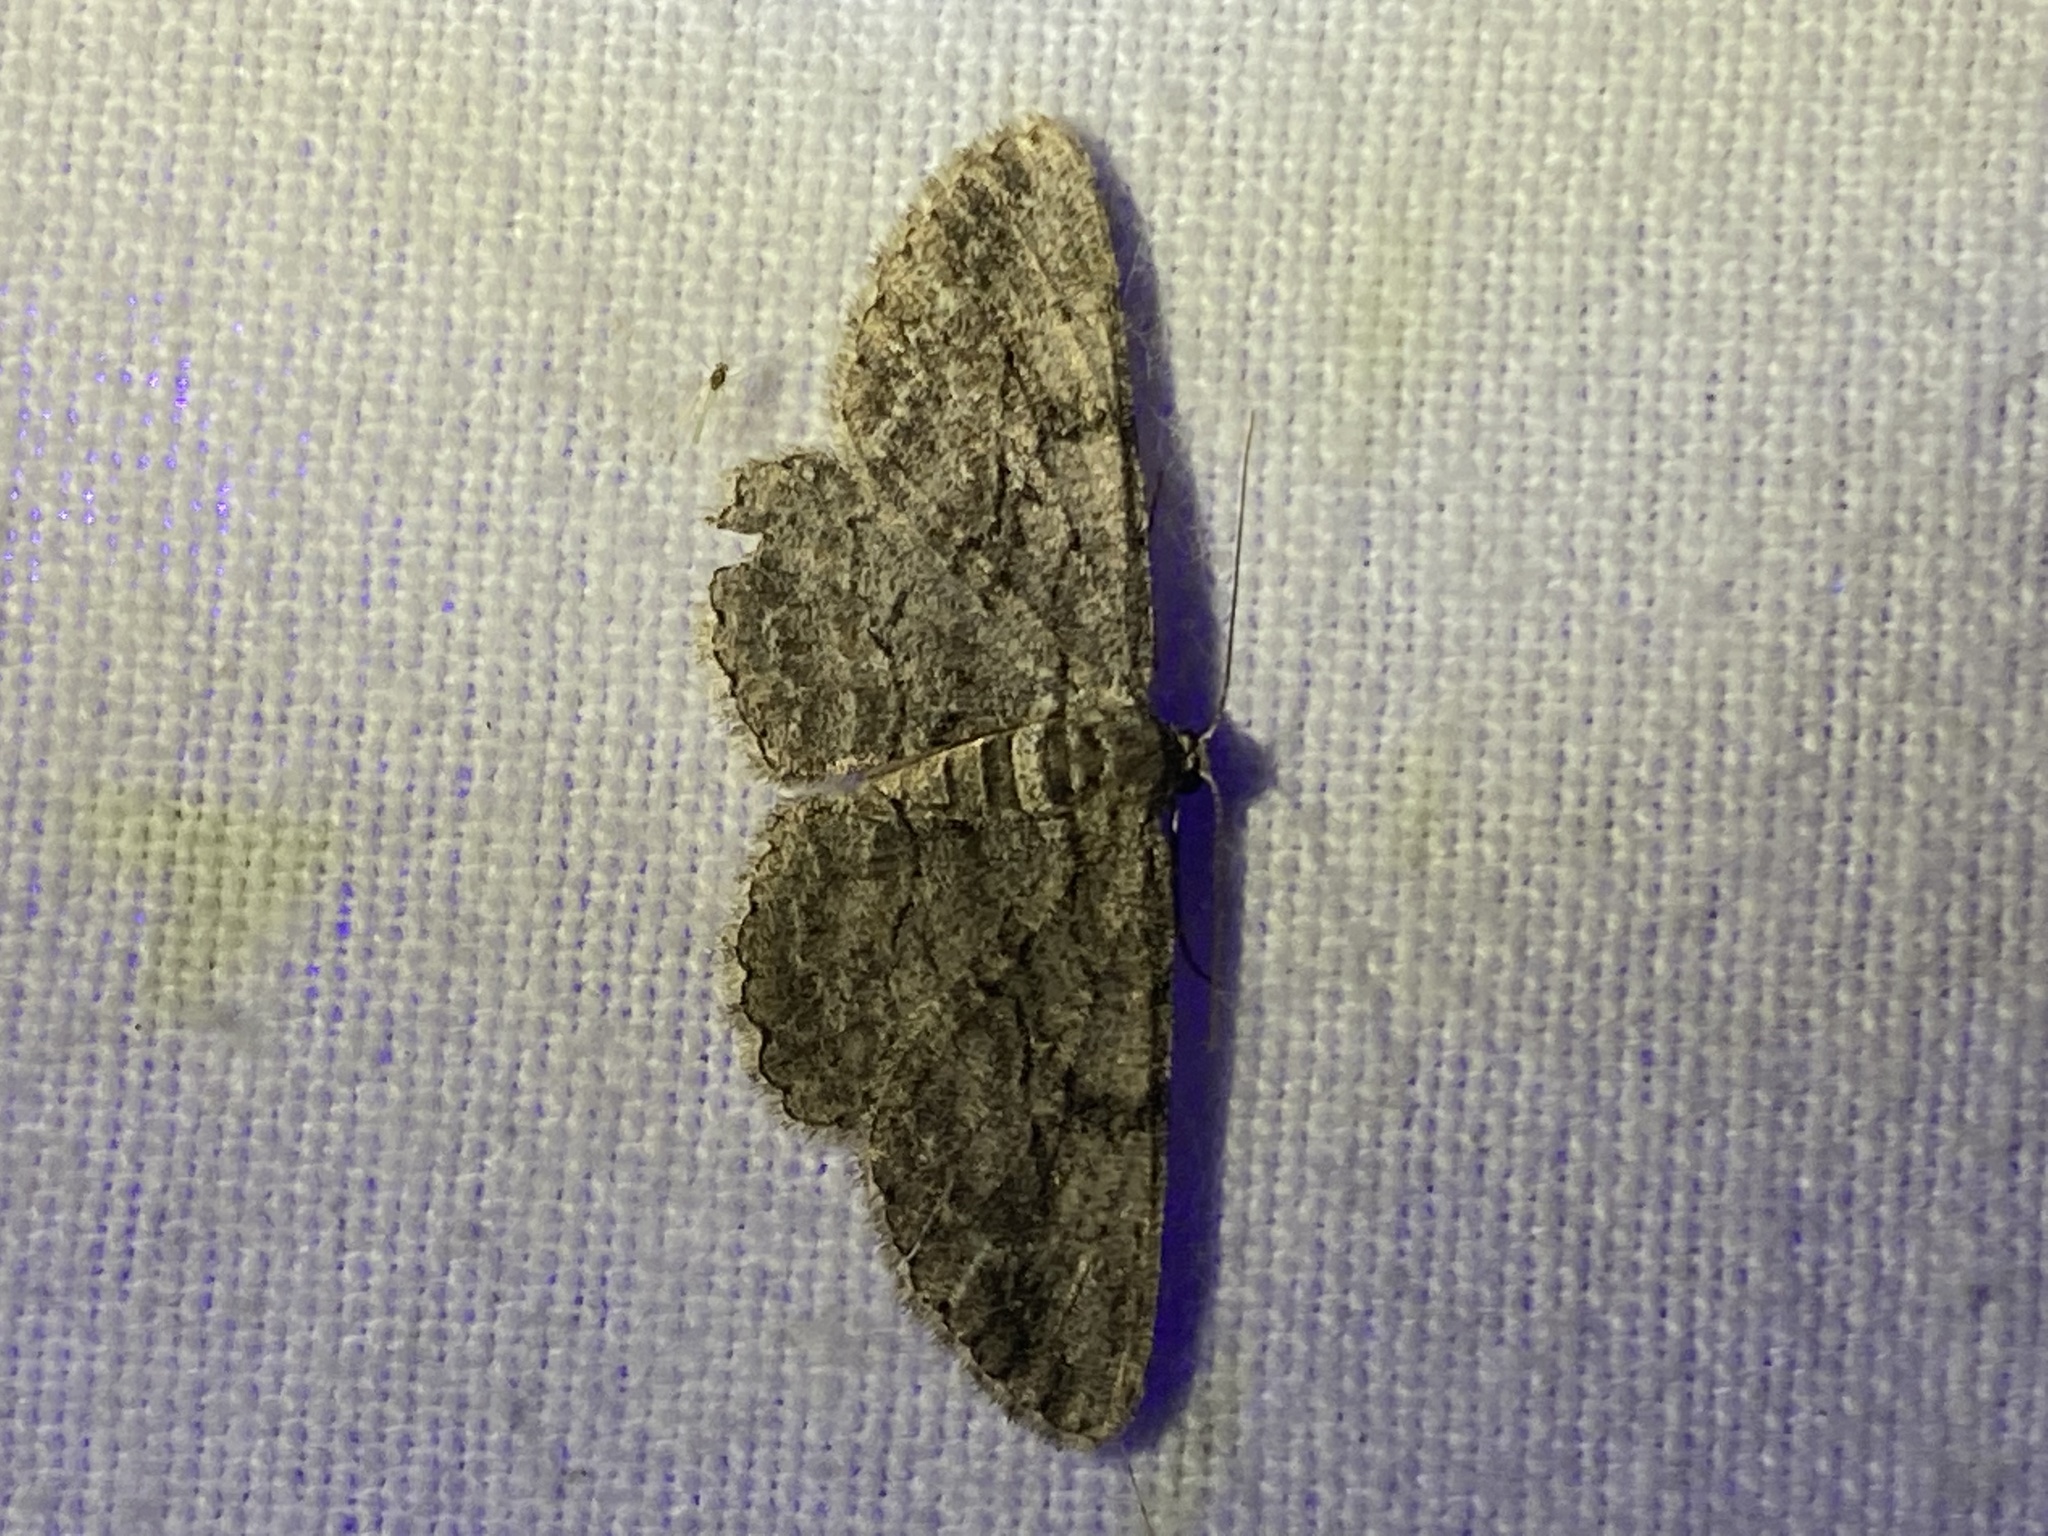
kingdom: Animalia
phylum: Arthropoda
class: Insecta
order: Lepidoptera
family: Geometridae
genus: Anavitrinella
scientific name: Anavitrinella pampinaria
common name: Common gray
